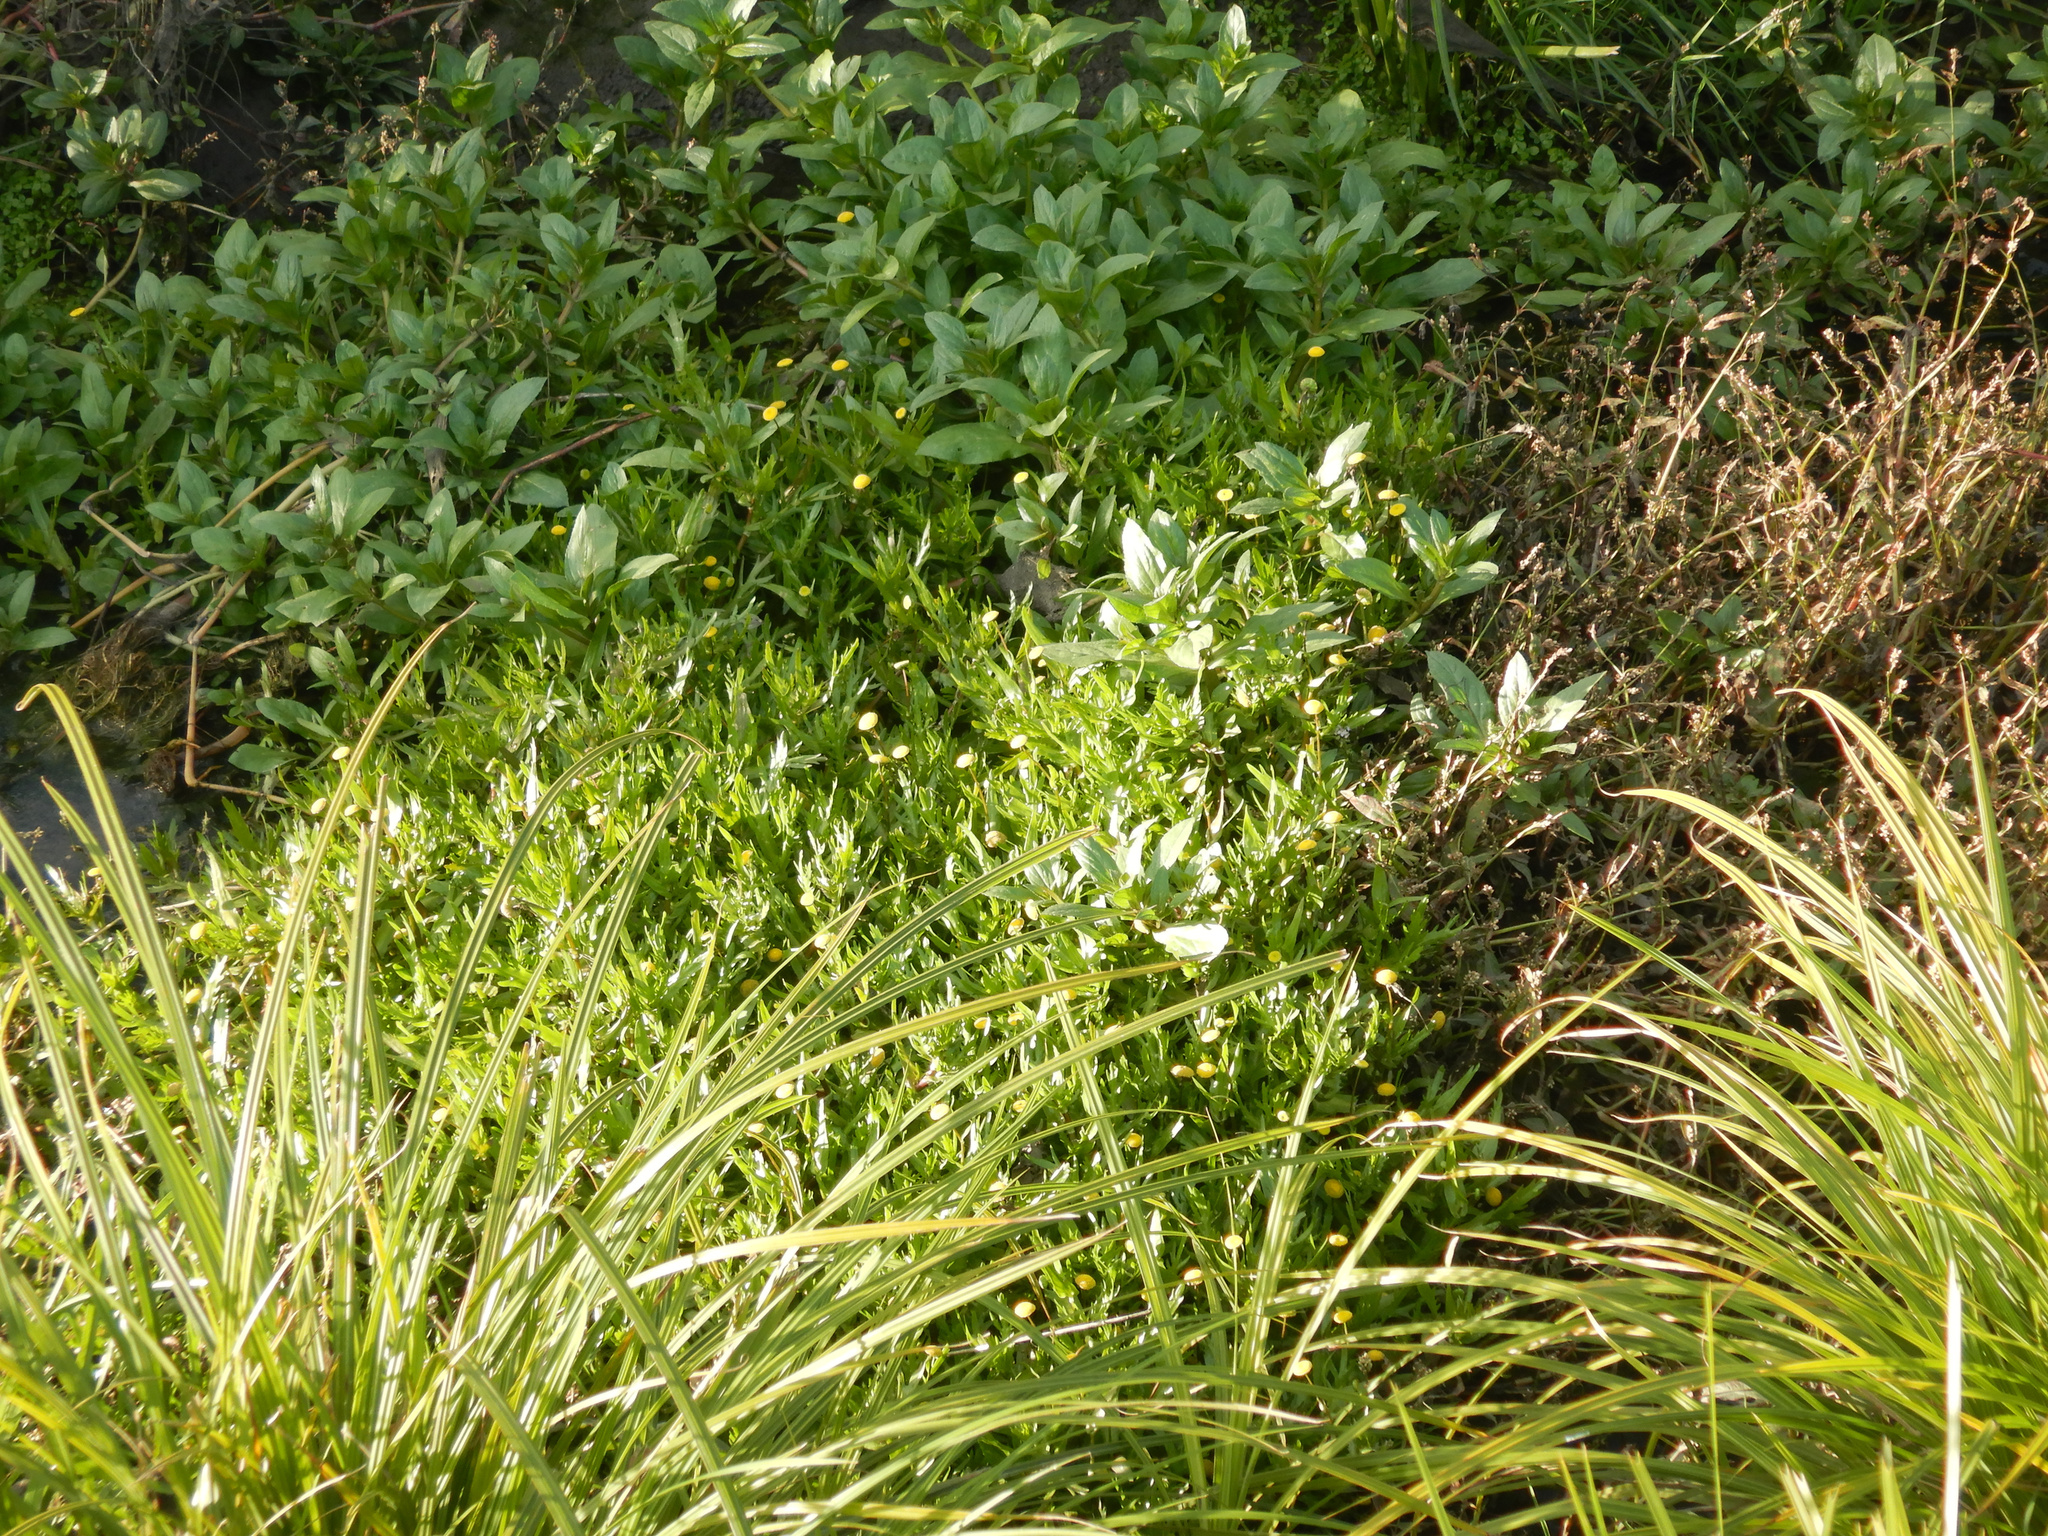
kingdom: Plantae
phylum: Tracheophyta
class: Magnoliopsida
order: Asterales
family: Asteraceae
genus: Cotula
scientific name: Cotula coronopifolia
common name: Buttonweed
